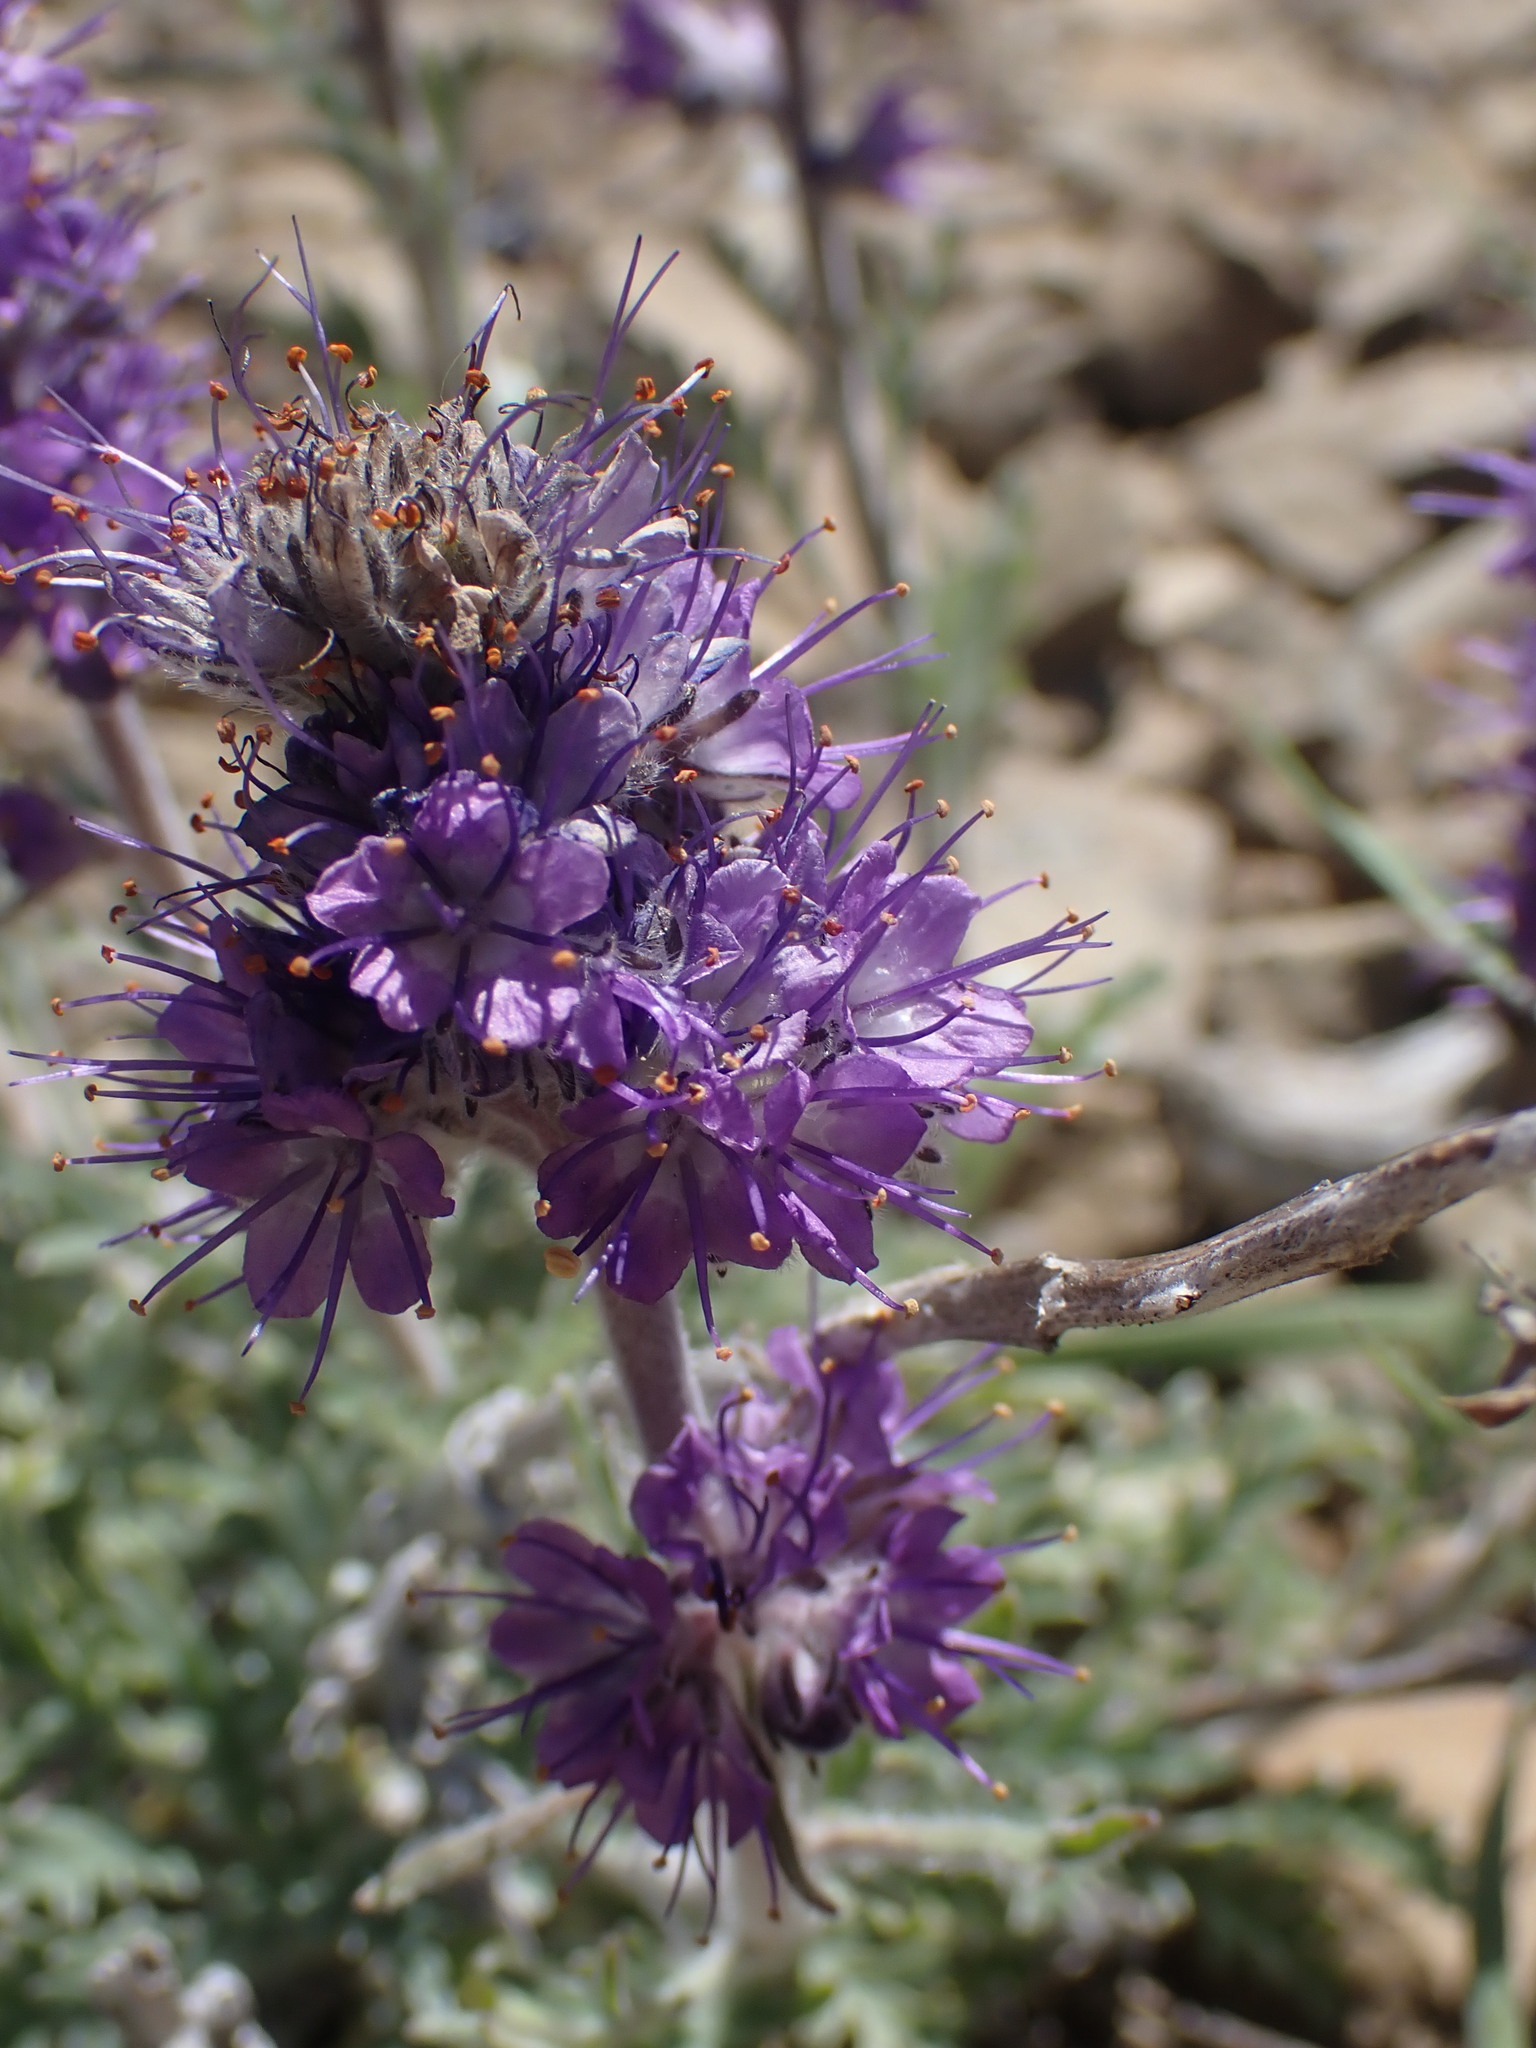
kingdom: Plantae
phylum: Tracheophyta
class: Magnoliopsida
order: Boraginales
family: Hydrophyllaceae
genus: Phacelia
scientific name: Phacelia sericea
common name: Silky phacelia
